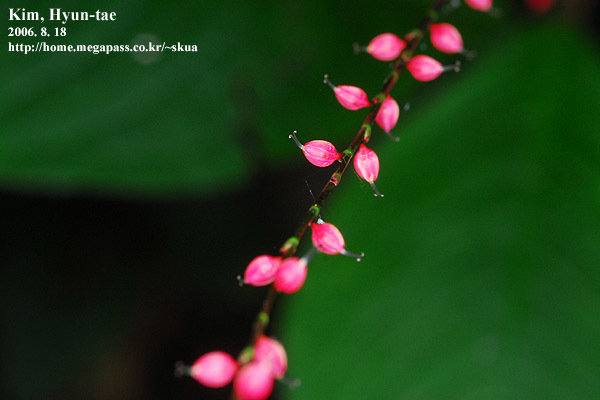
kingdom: Plantae
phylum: Tracheophyta
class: Magnoliopsida
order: Caryophyllales
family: Polygonaceae
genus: Persicaria
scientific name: Persicaria filiformis
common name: Asian jumpseed
